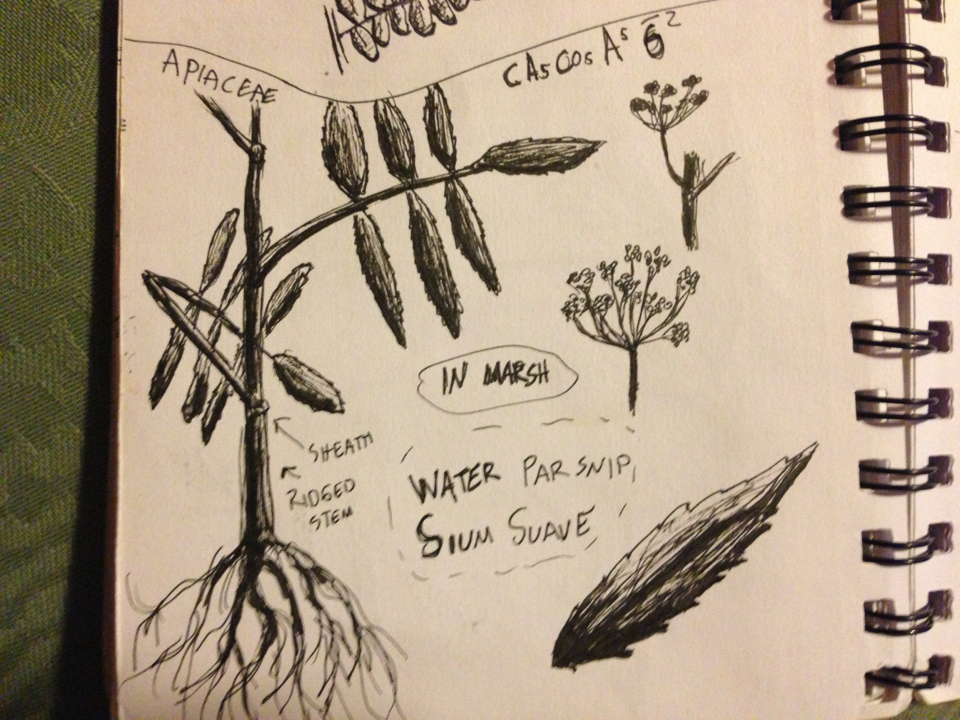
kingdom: Plantae
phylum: Tracheophyta
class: Magnoliopsida
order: Apiales
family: Apiaceae
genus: Sium
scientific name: Sium suave
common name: Hemlock water-parsnip
